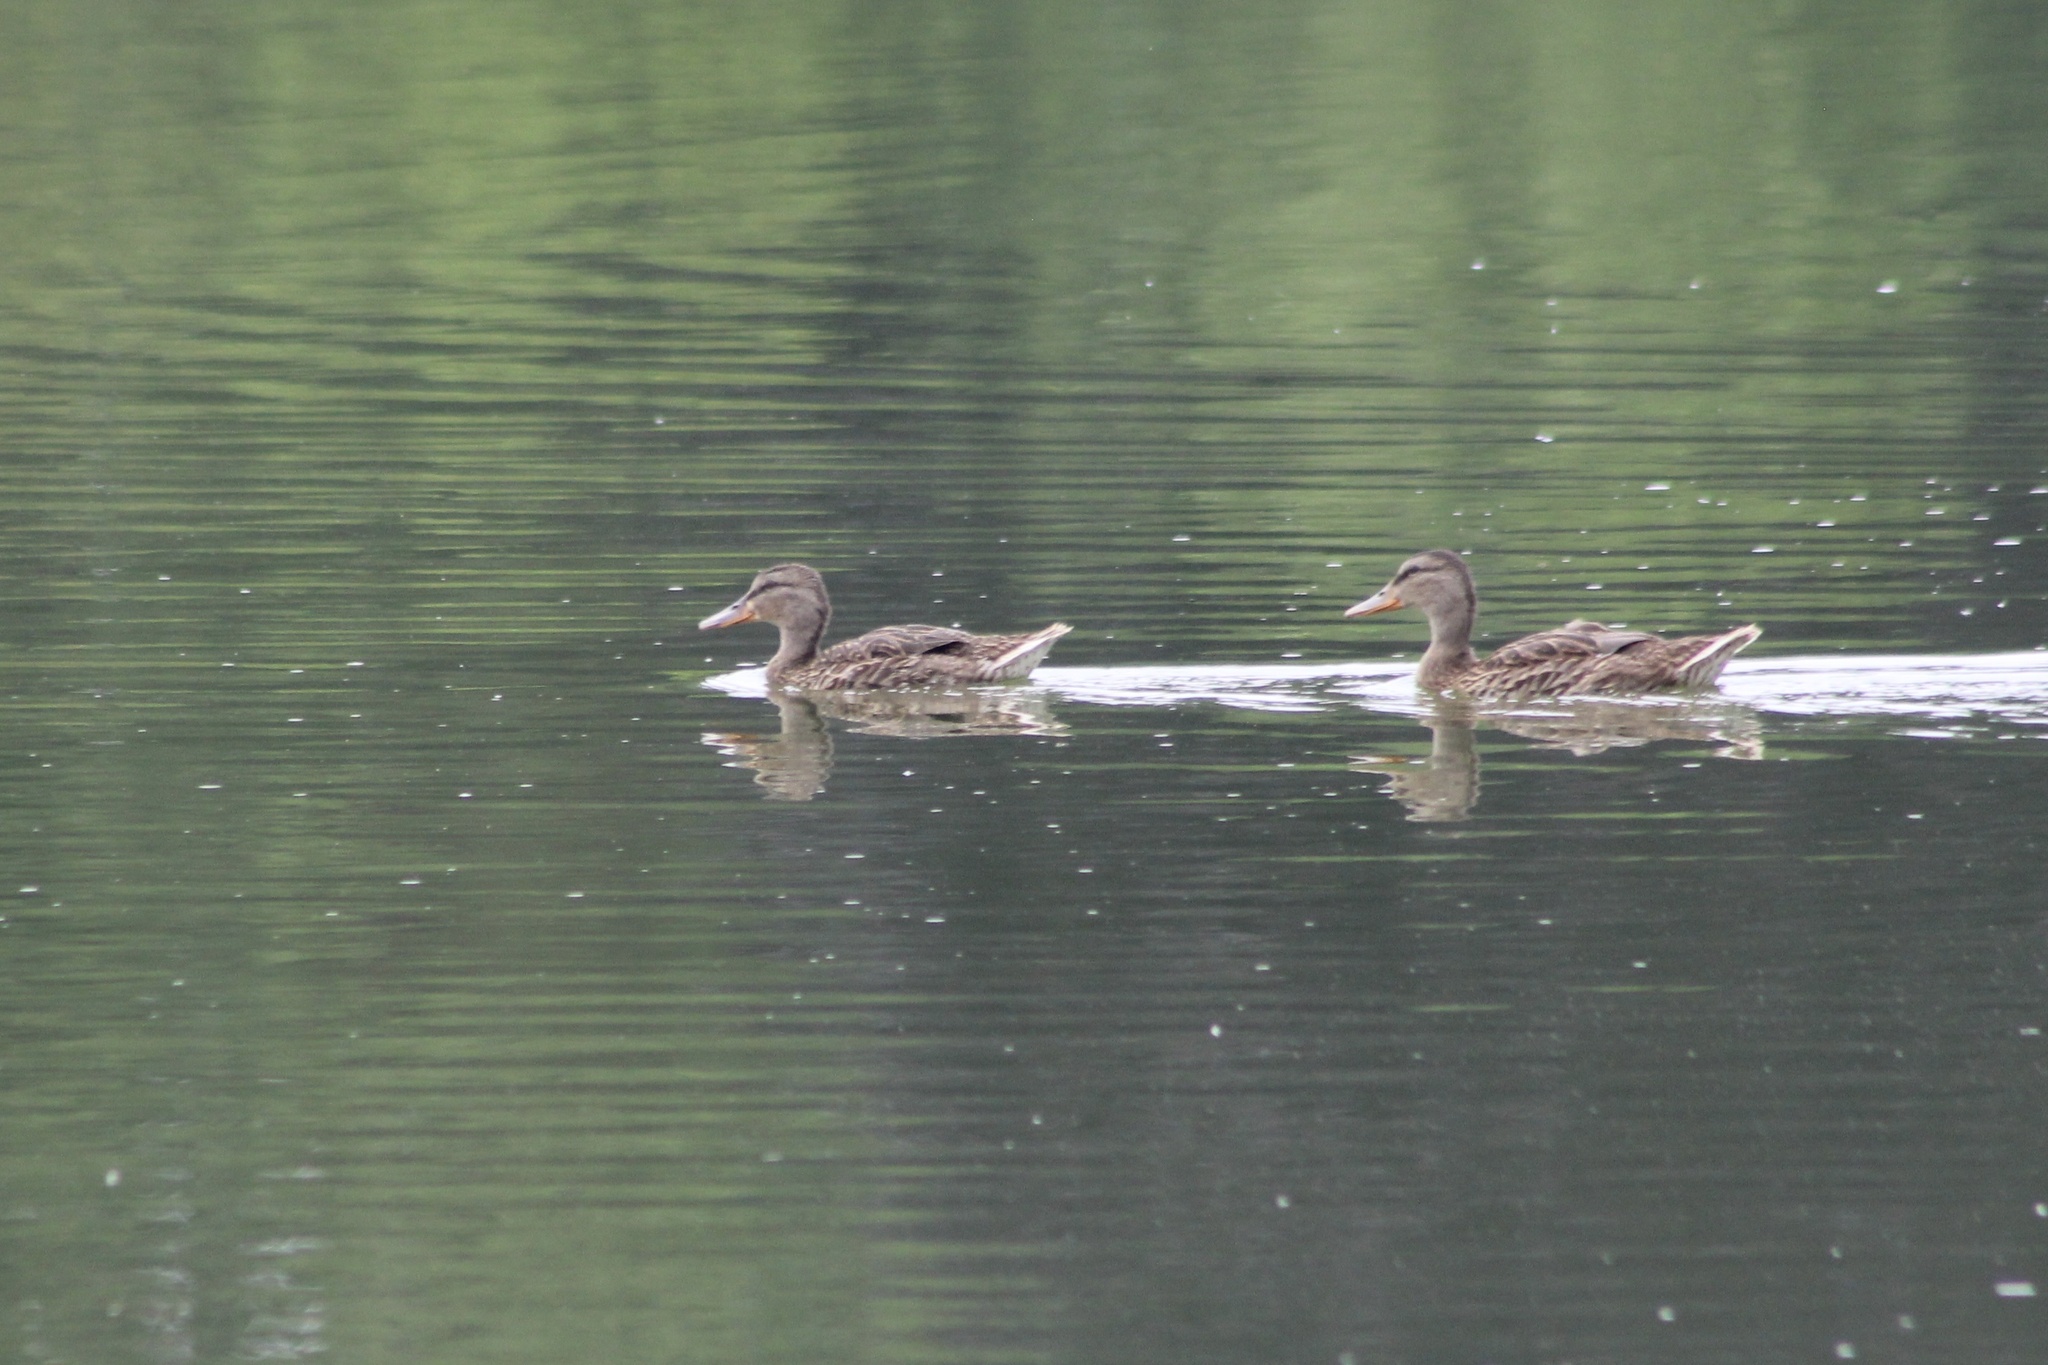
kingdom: Animalia
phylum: Chordata
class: Aves
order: Anseriformes
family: Anatidae
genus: Anas
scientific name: Anas platyrhynchos
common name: Mallard
